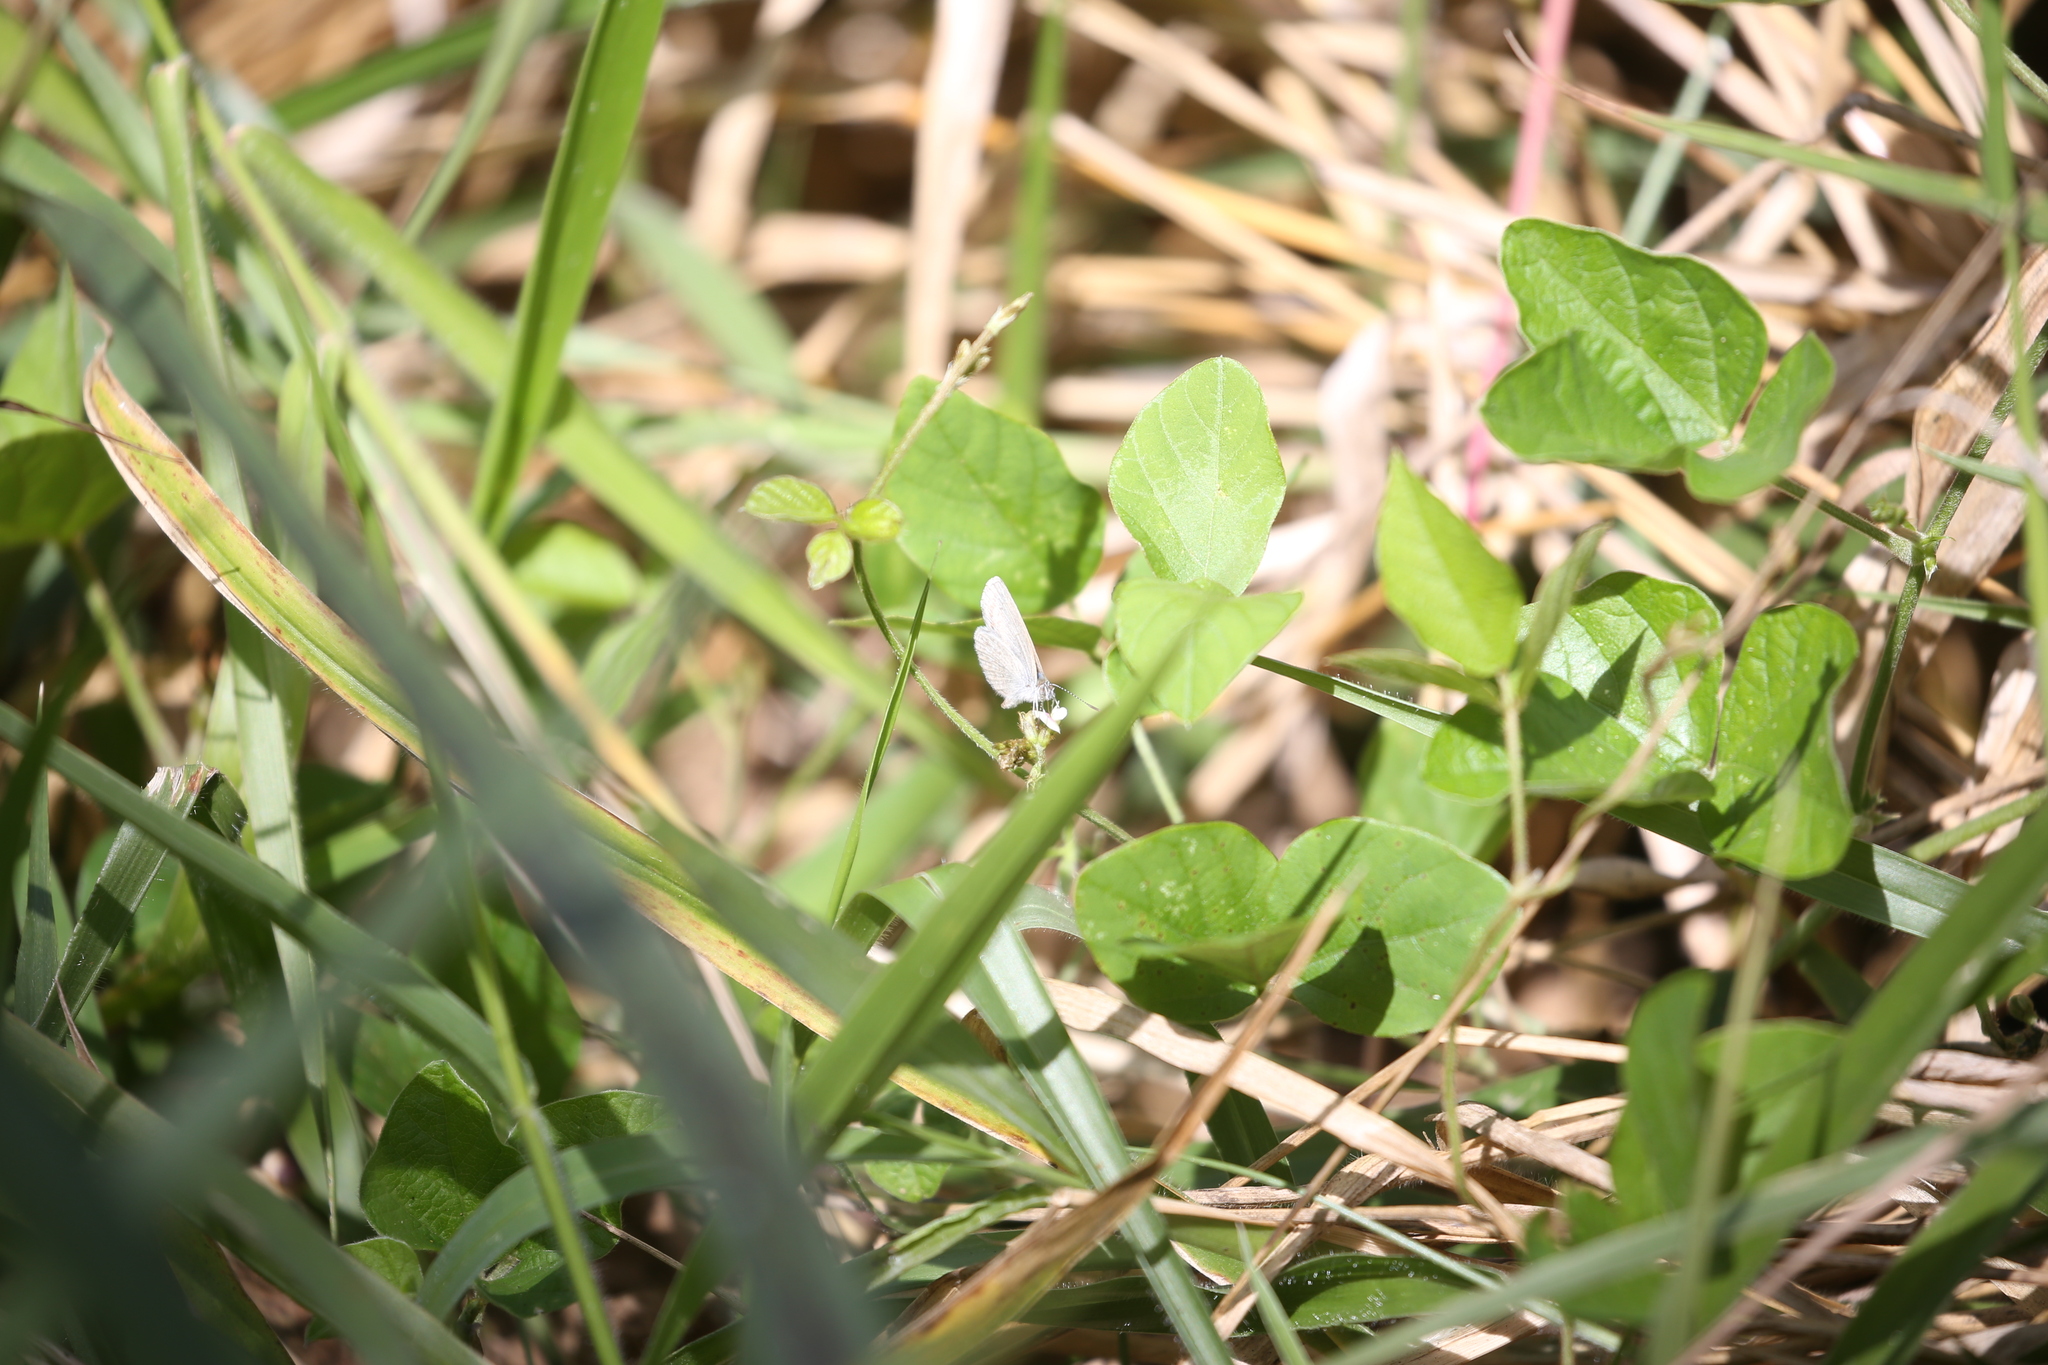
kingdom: Animalia
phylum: Arthropoda
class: Insecta
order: Lepidoptera
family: Lycaenidae
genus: Zizina
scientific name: Zizina otis
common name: Lesser grass blue
